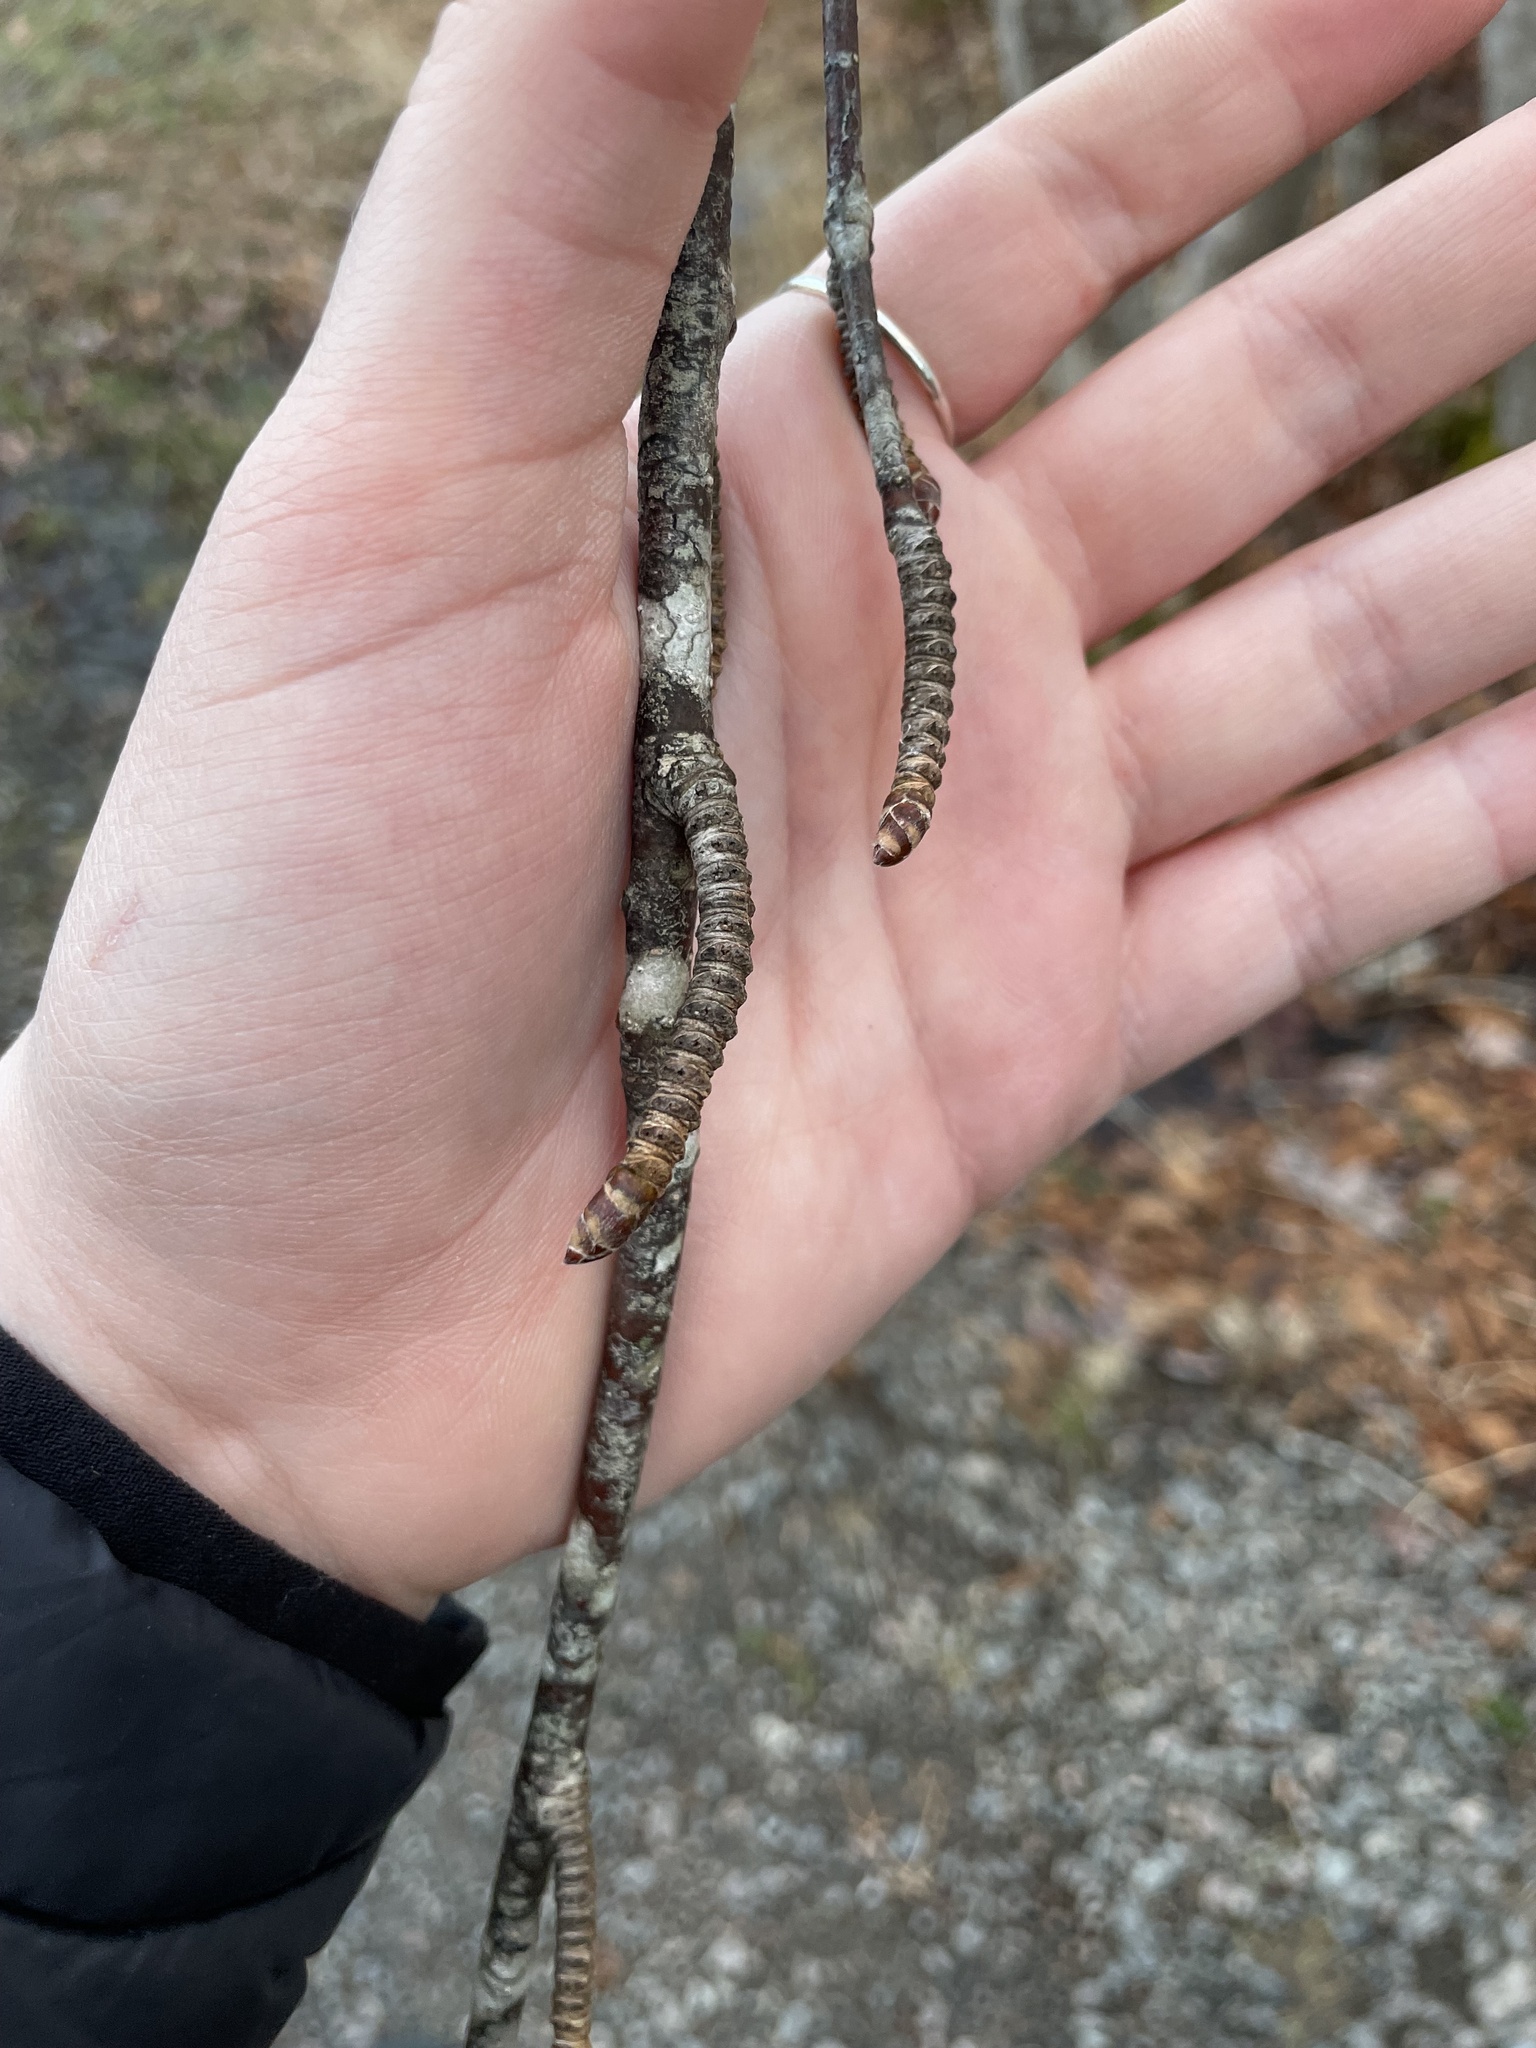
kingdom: Plantae
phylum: Tracheophyta
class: Magnoliopsida
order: Fagales
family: Betulaceae
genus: Betula
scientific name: Betula alleghaniensis
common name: Yellow birch
